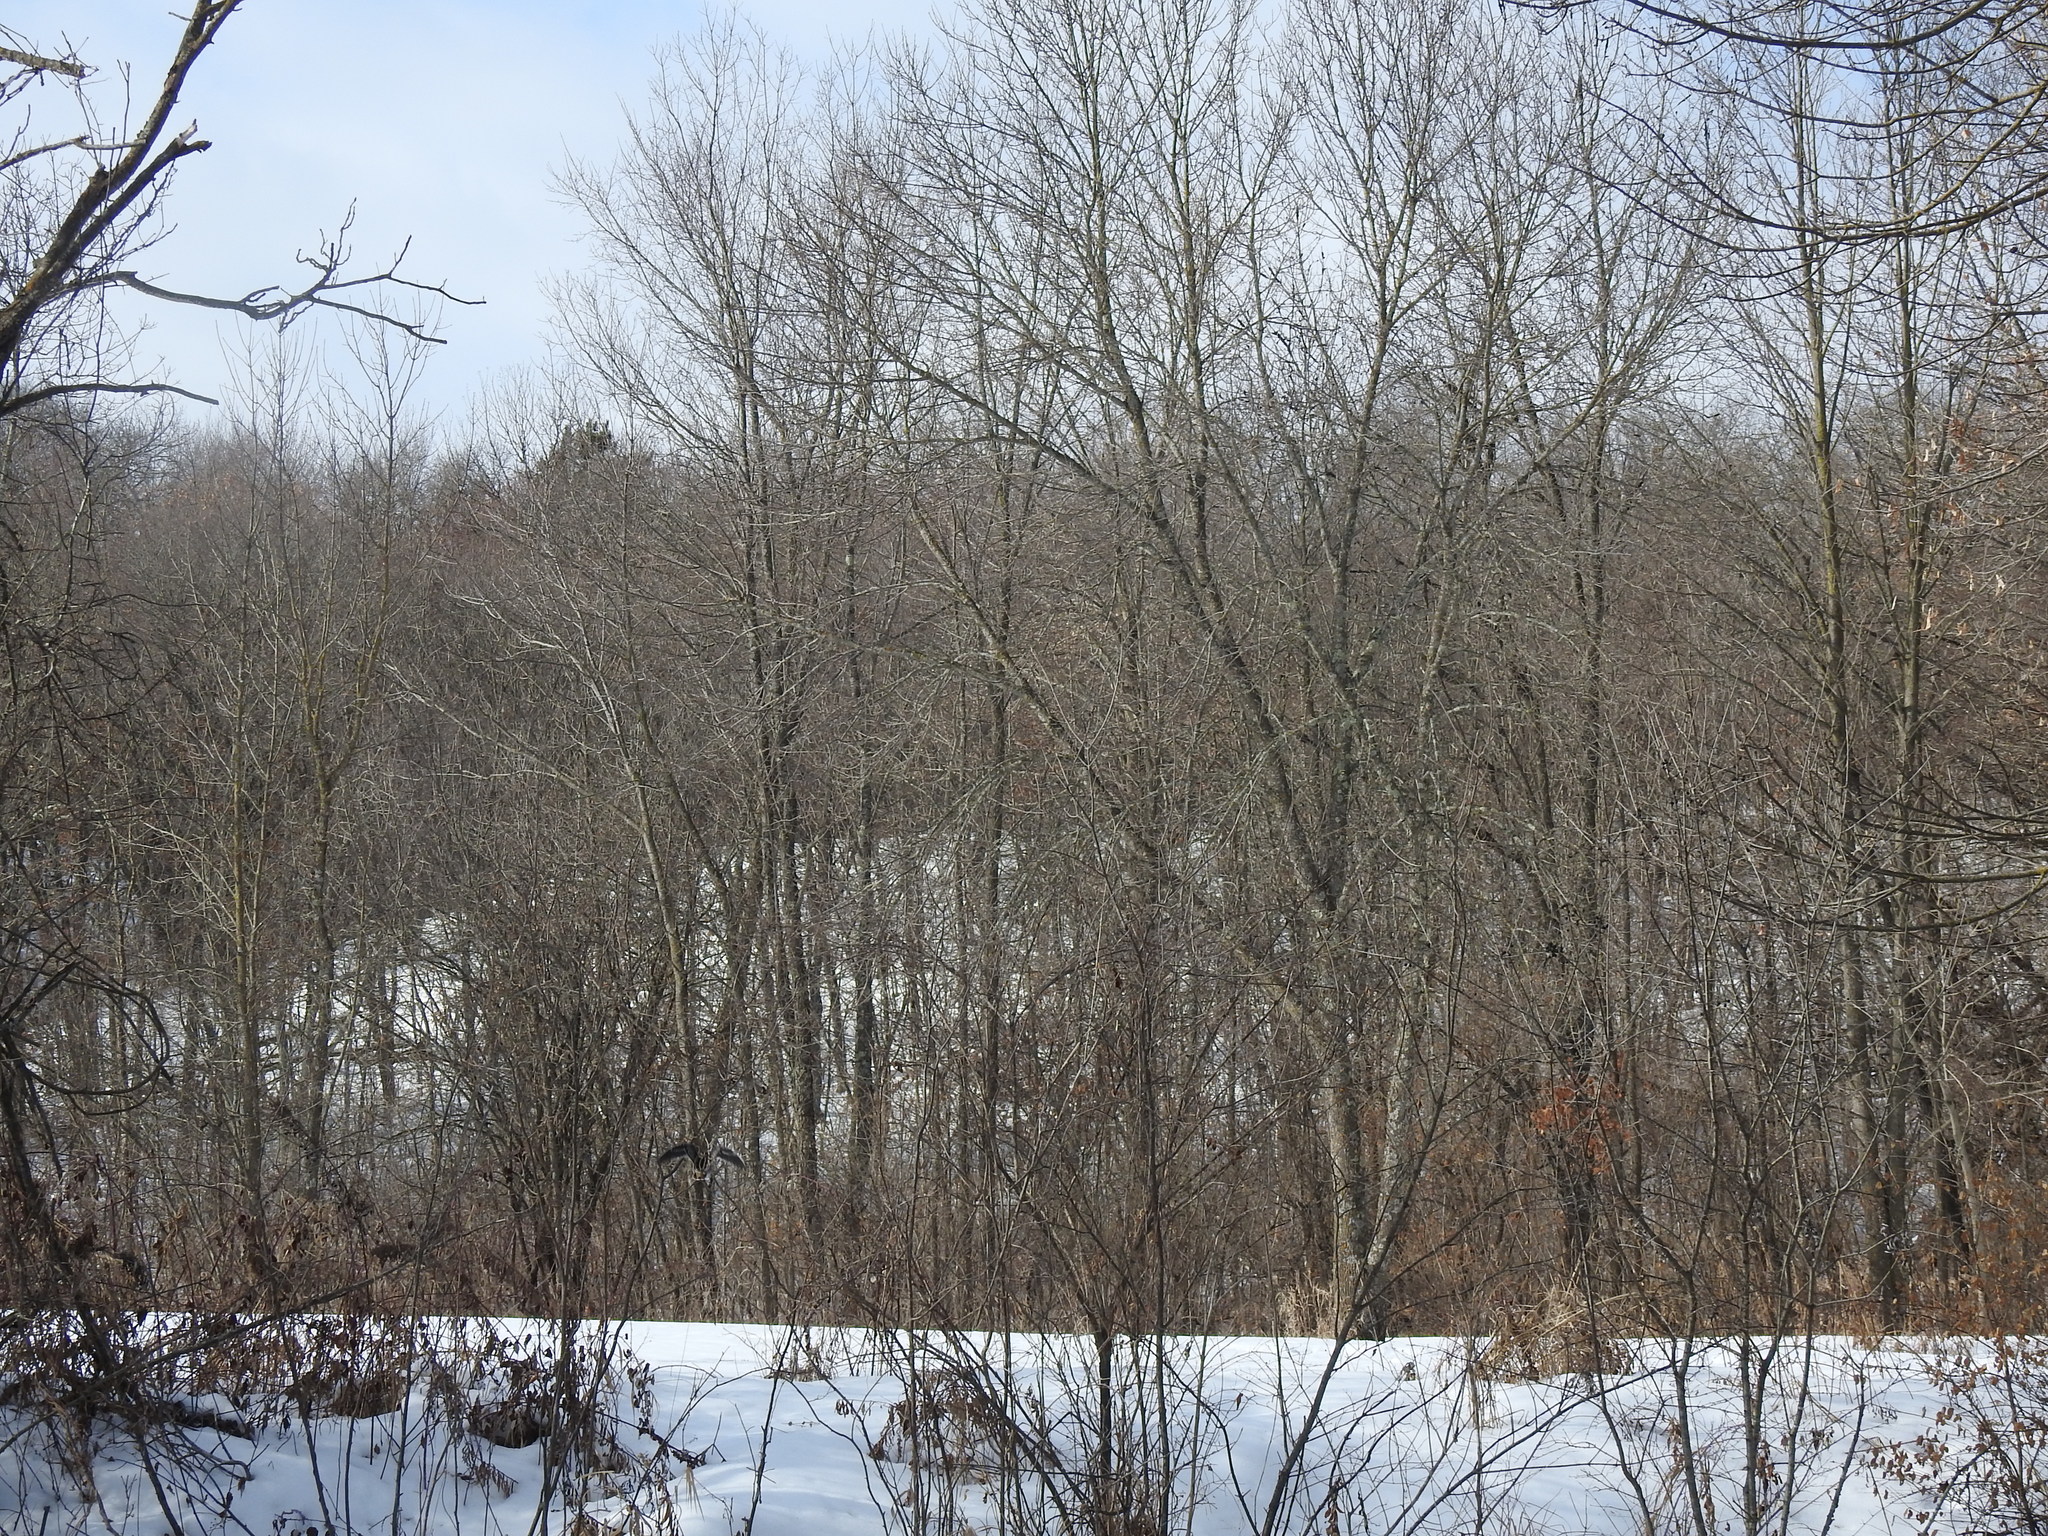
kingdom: Animalia
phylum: Chordata
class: Aves
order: Charadriiformes
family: Scolopacidae
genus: Gallinago
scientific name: Gallinago delicata
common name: Wilson's snipe
